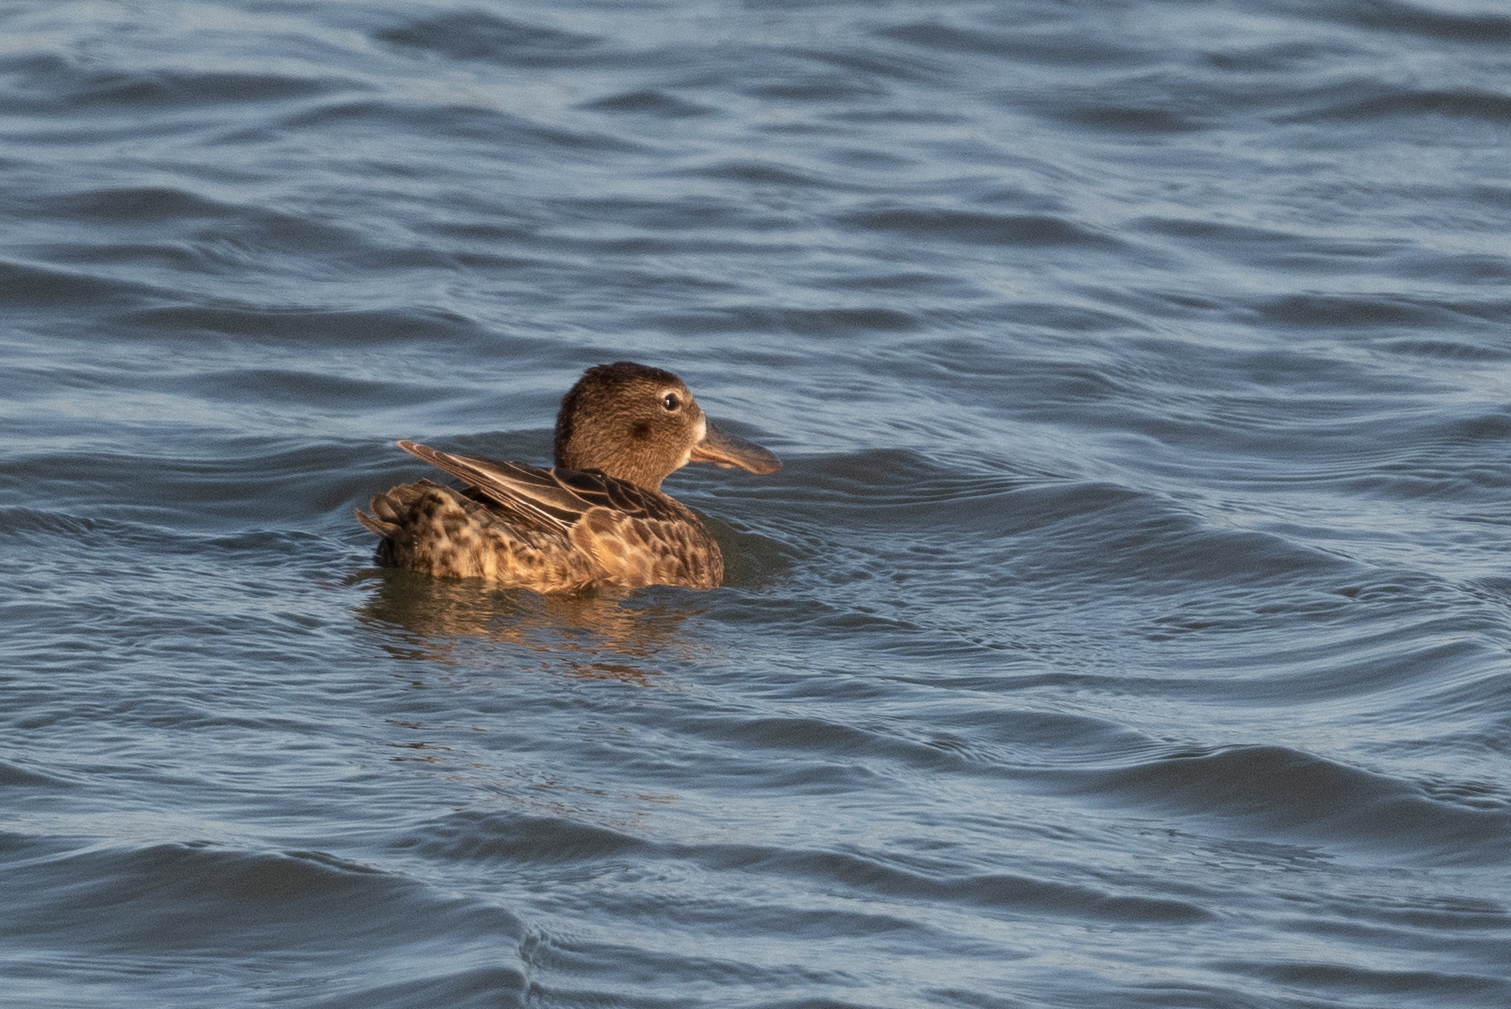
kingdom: Animalia
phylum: Chordata
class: Aves
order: Anseriformes
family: Anatidae
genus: Spatula
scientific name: Spatula cyanoptera
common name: Cinnamon teal
